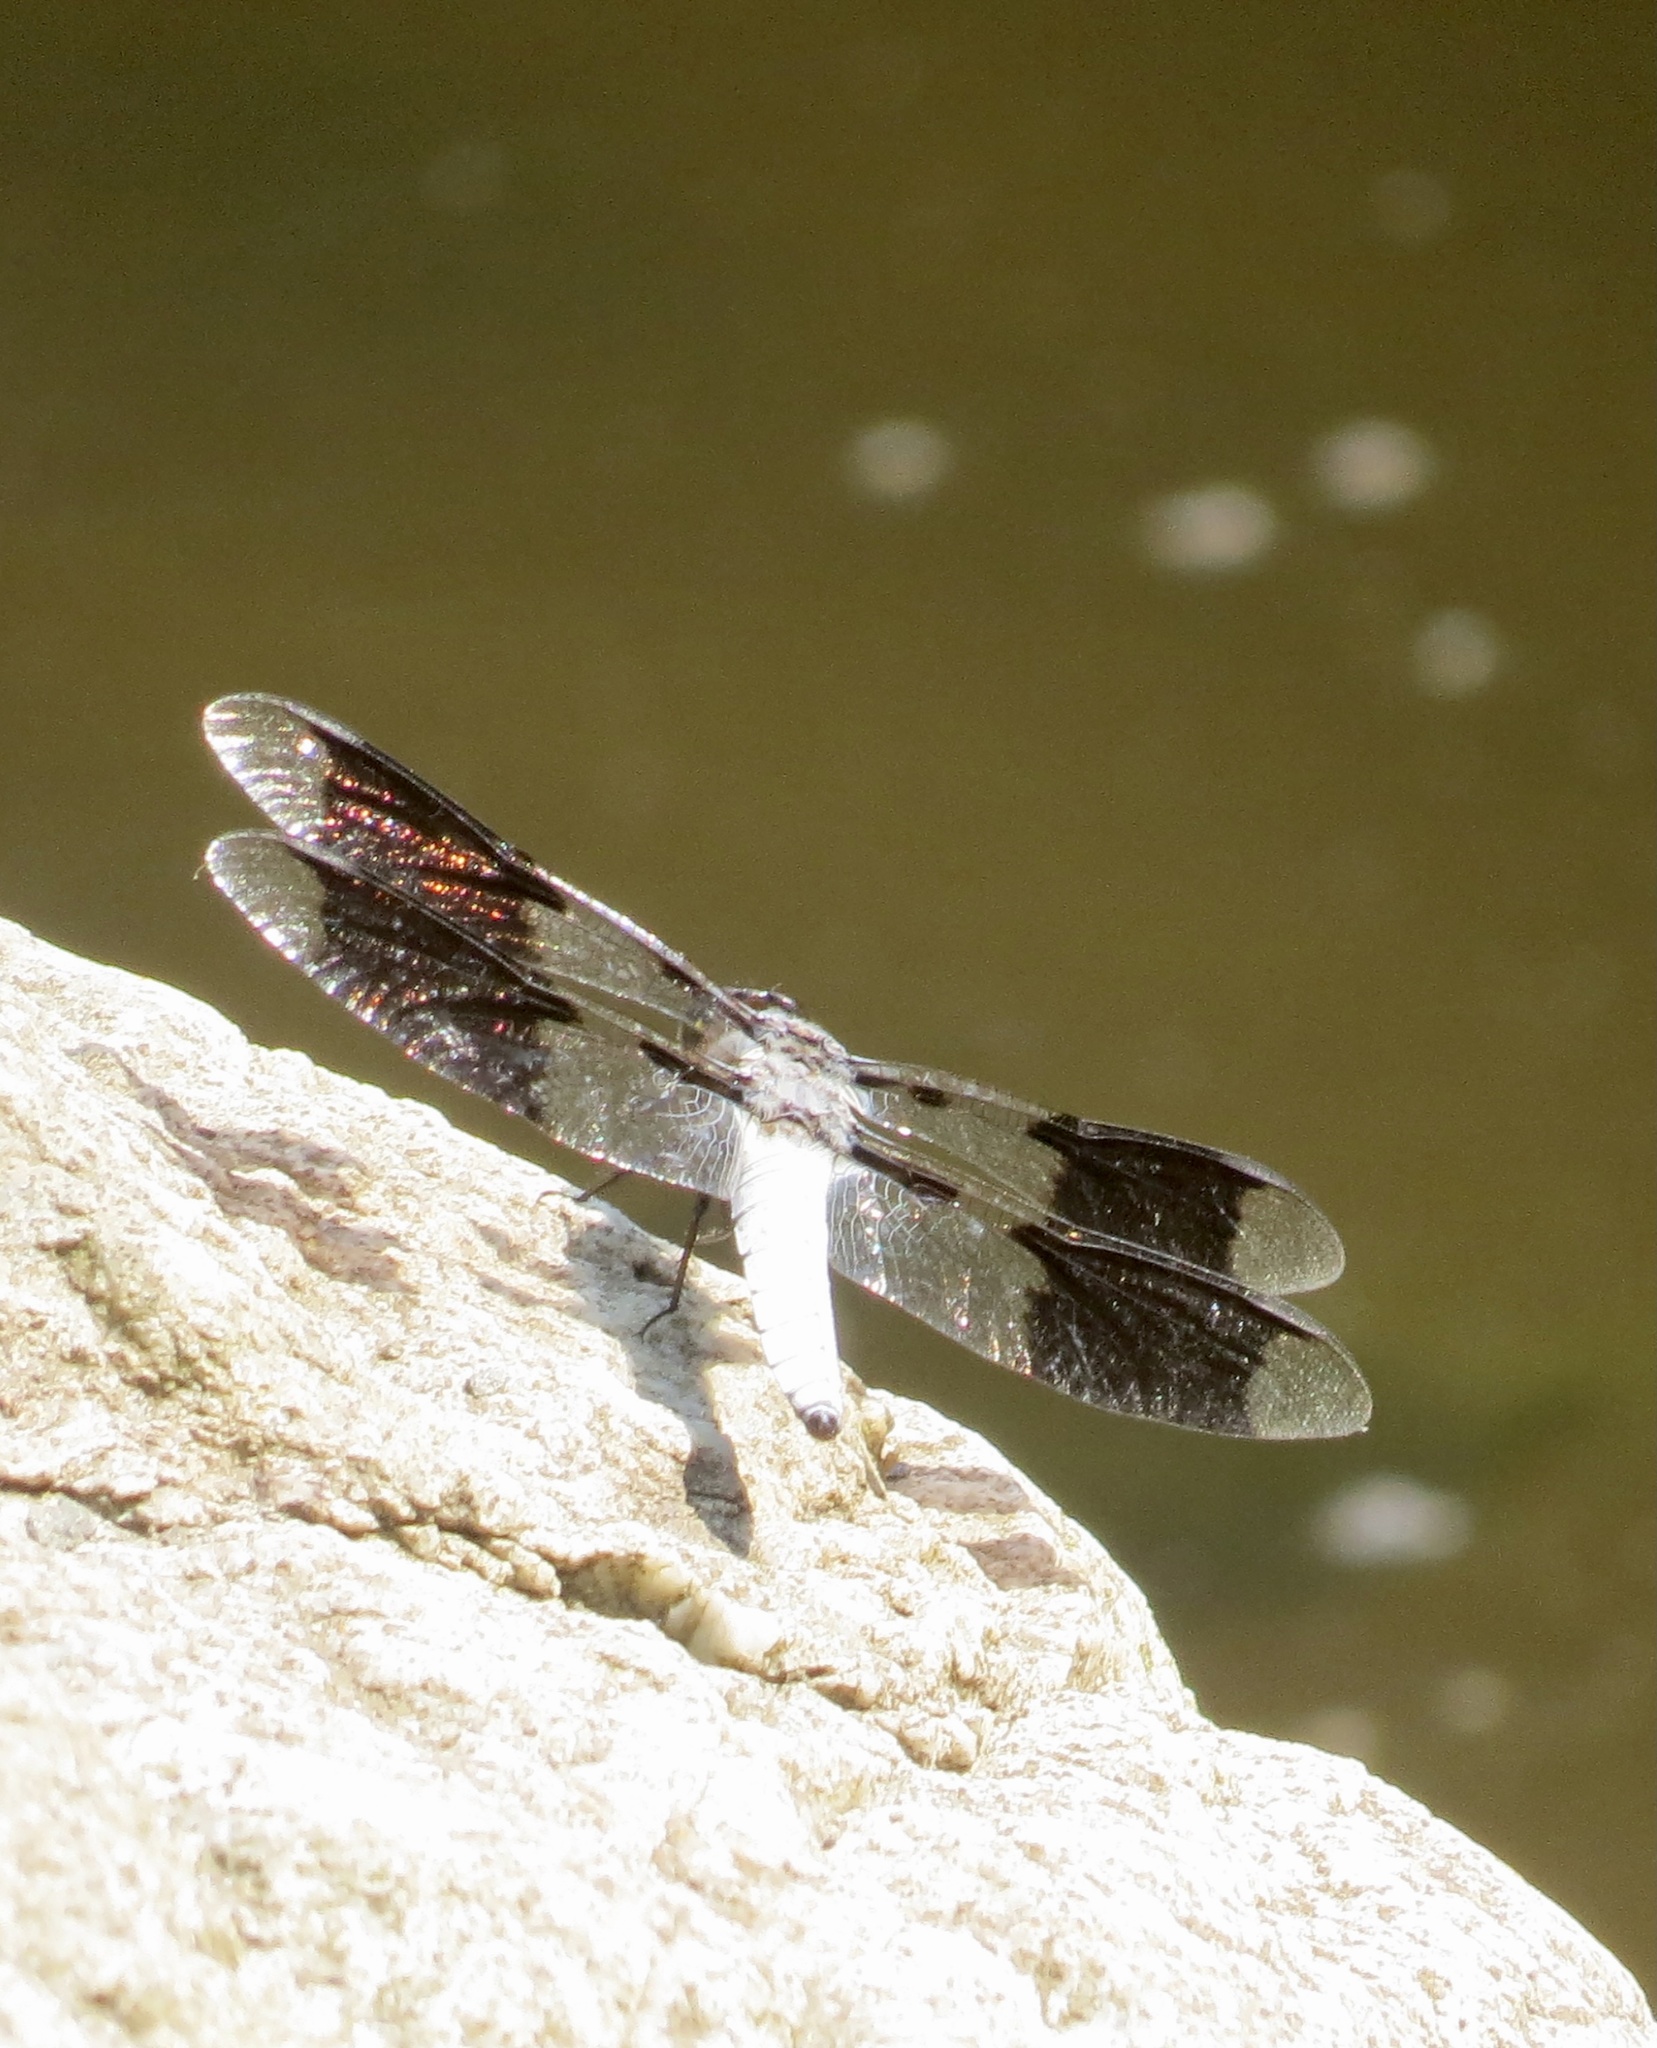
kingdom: Animalia
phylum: Arthropoda
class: Insecta
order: Odonata
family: Libellulidae
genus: Plathemis
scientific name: Plathemis lydia
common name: Common whitetail
